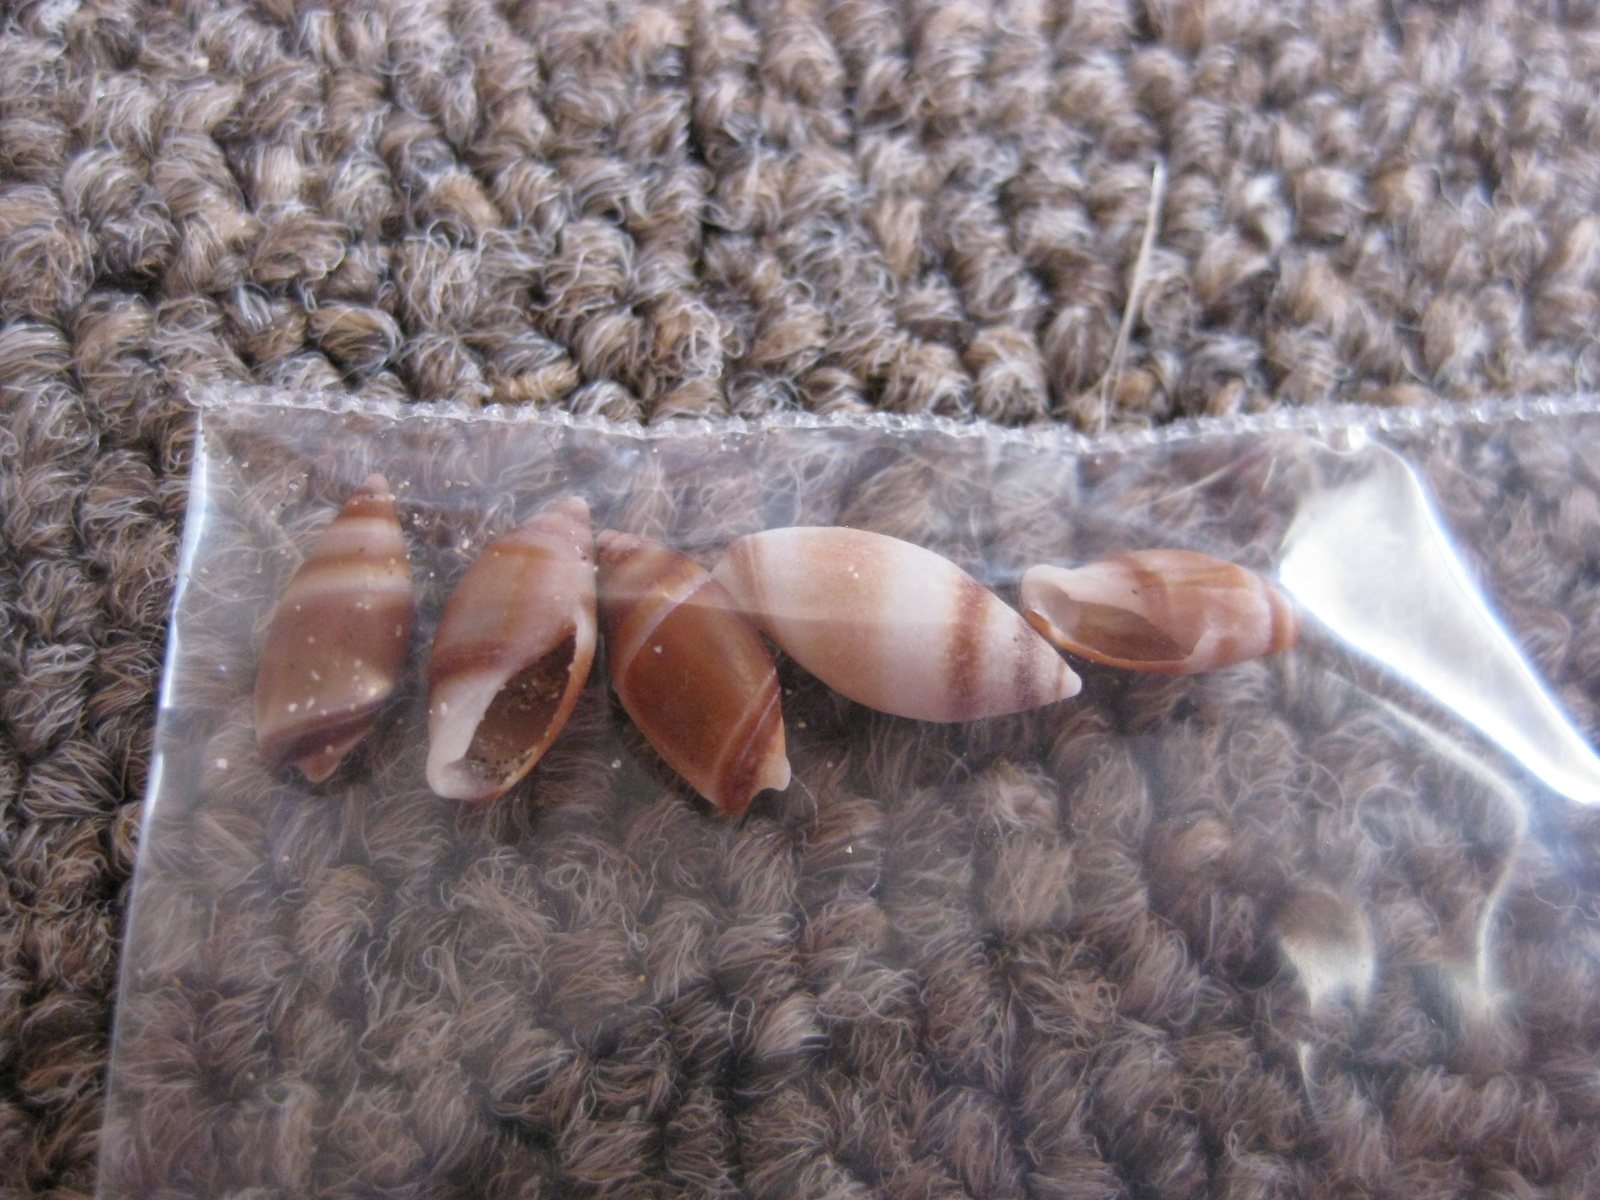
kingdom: Animalia
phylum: Mollusca
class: Gastropoda
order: Neogastropoda
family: Ancillariidae
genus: Amalda
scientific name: Amalda novaezelandiae
